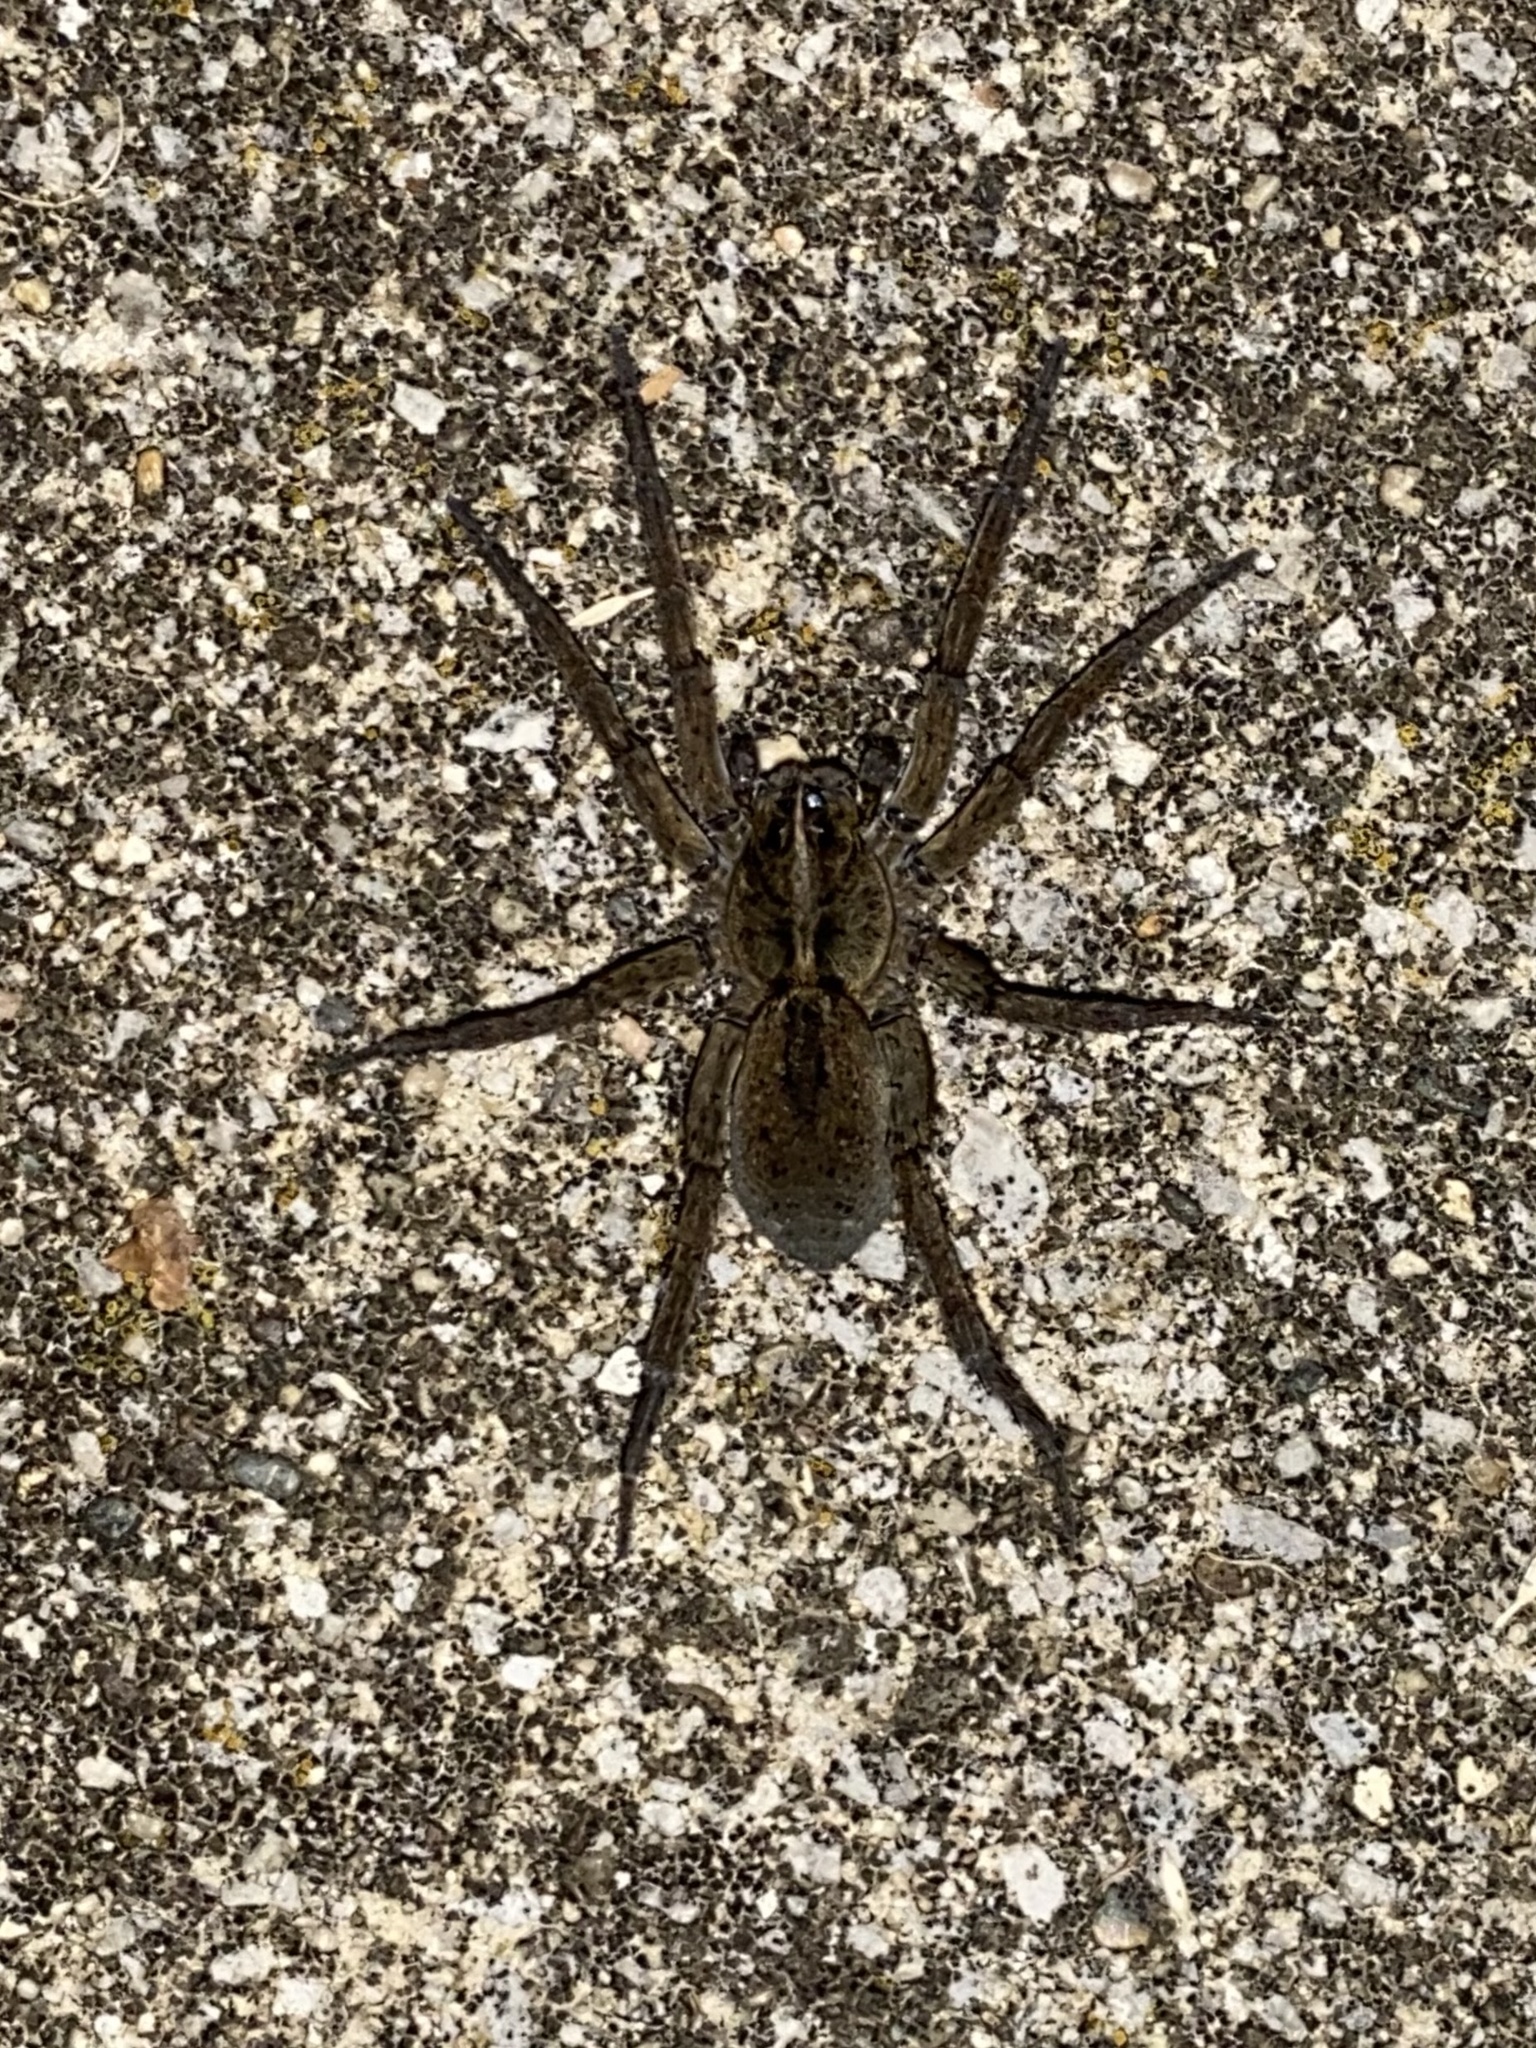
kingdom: Animalia
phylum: Arthropoda
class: Arachnida
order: Araneae
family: Lycosidae
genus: Tigrosa
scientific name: Tigrosa helluo
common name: Wetland giant wolf spider
